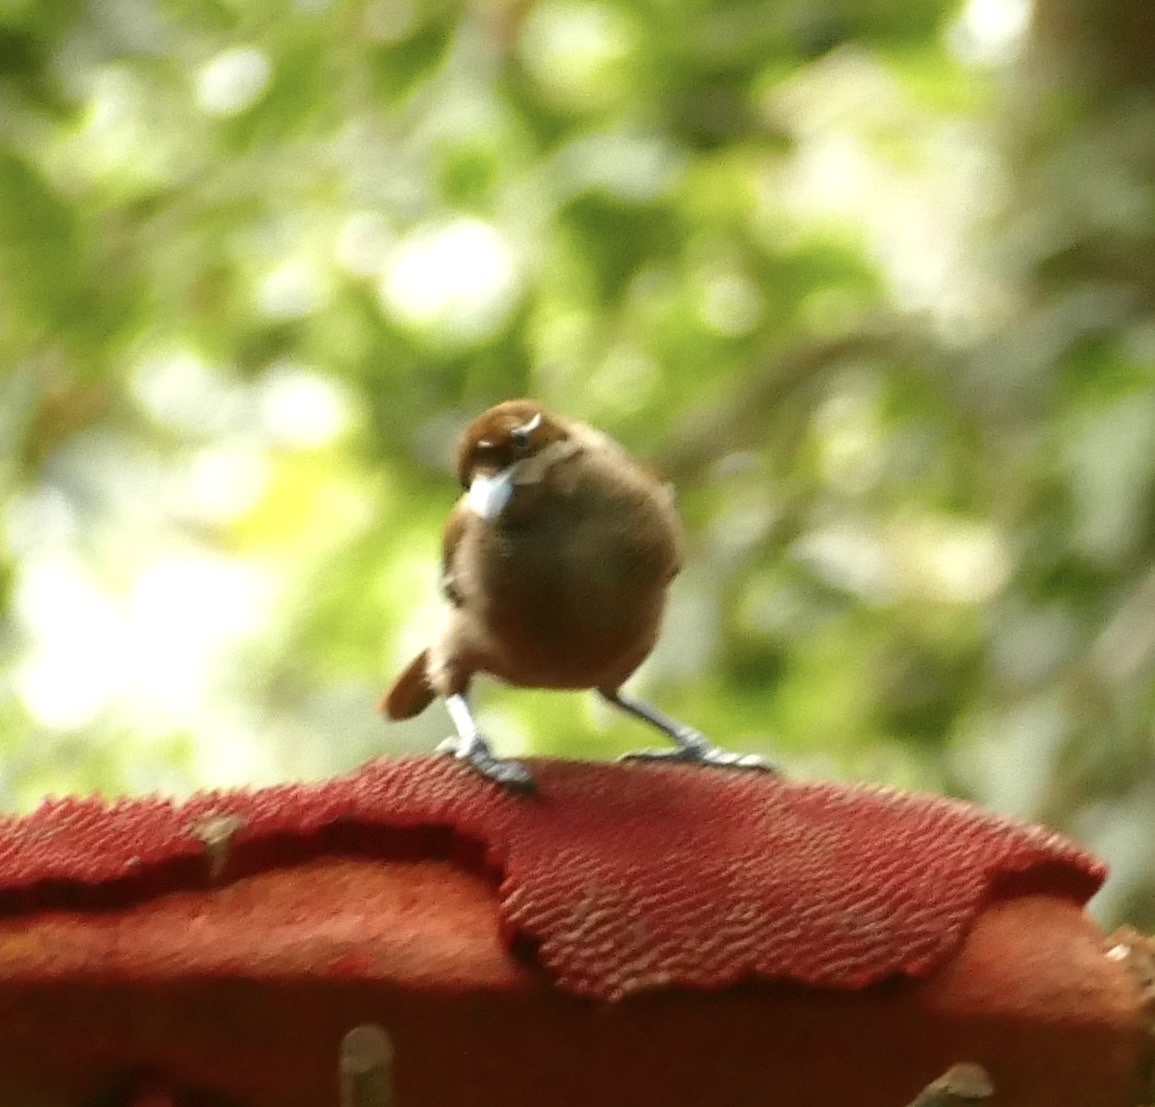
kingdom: Animalia
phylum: Chordata
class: Aves
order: Passeriformes
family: Paradisaeidae
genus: Diphyllodes
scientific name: Diphyllodes magnificus
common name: Magnificent bird-of-paradise
